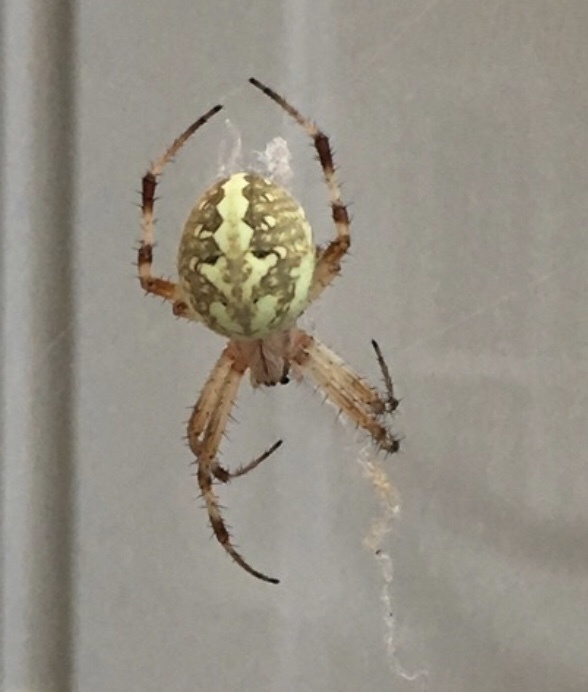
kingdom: Animalia
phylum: Arthropoda
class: Arachnida
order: Araneae
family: Araneidae
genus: Neoscona
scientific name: Neoscona oaxacensis
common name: Orb weavers
